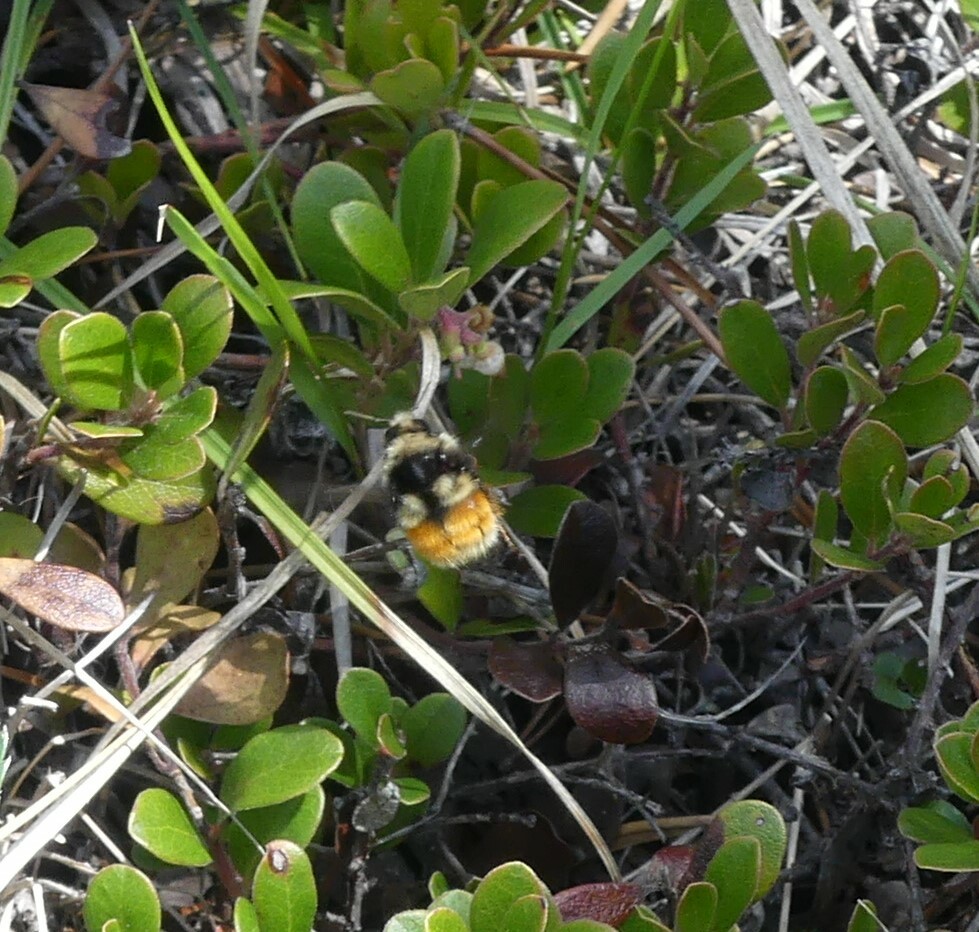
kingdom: Animalia
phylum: Arthropoda
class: Insecta
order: Hymenoptera
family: Apidae
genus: Bombus
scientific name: Bombus vancouverensis
